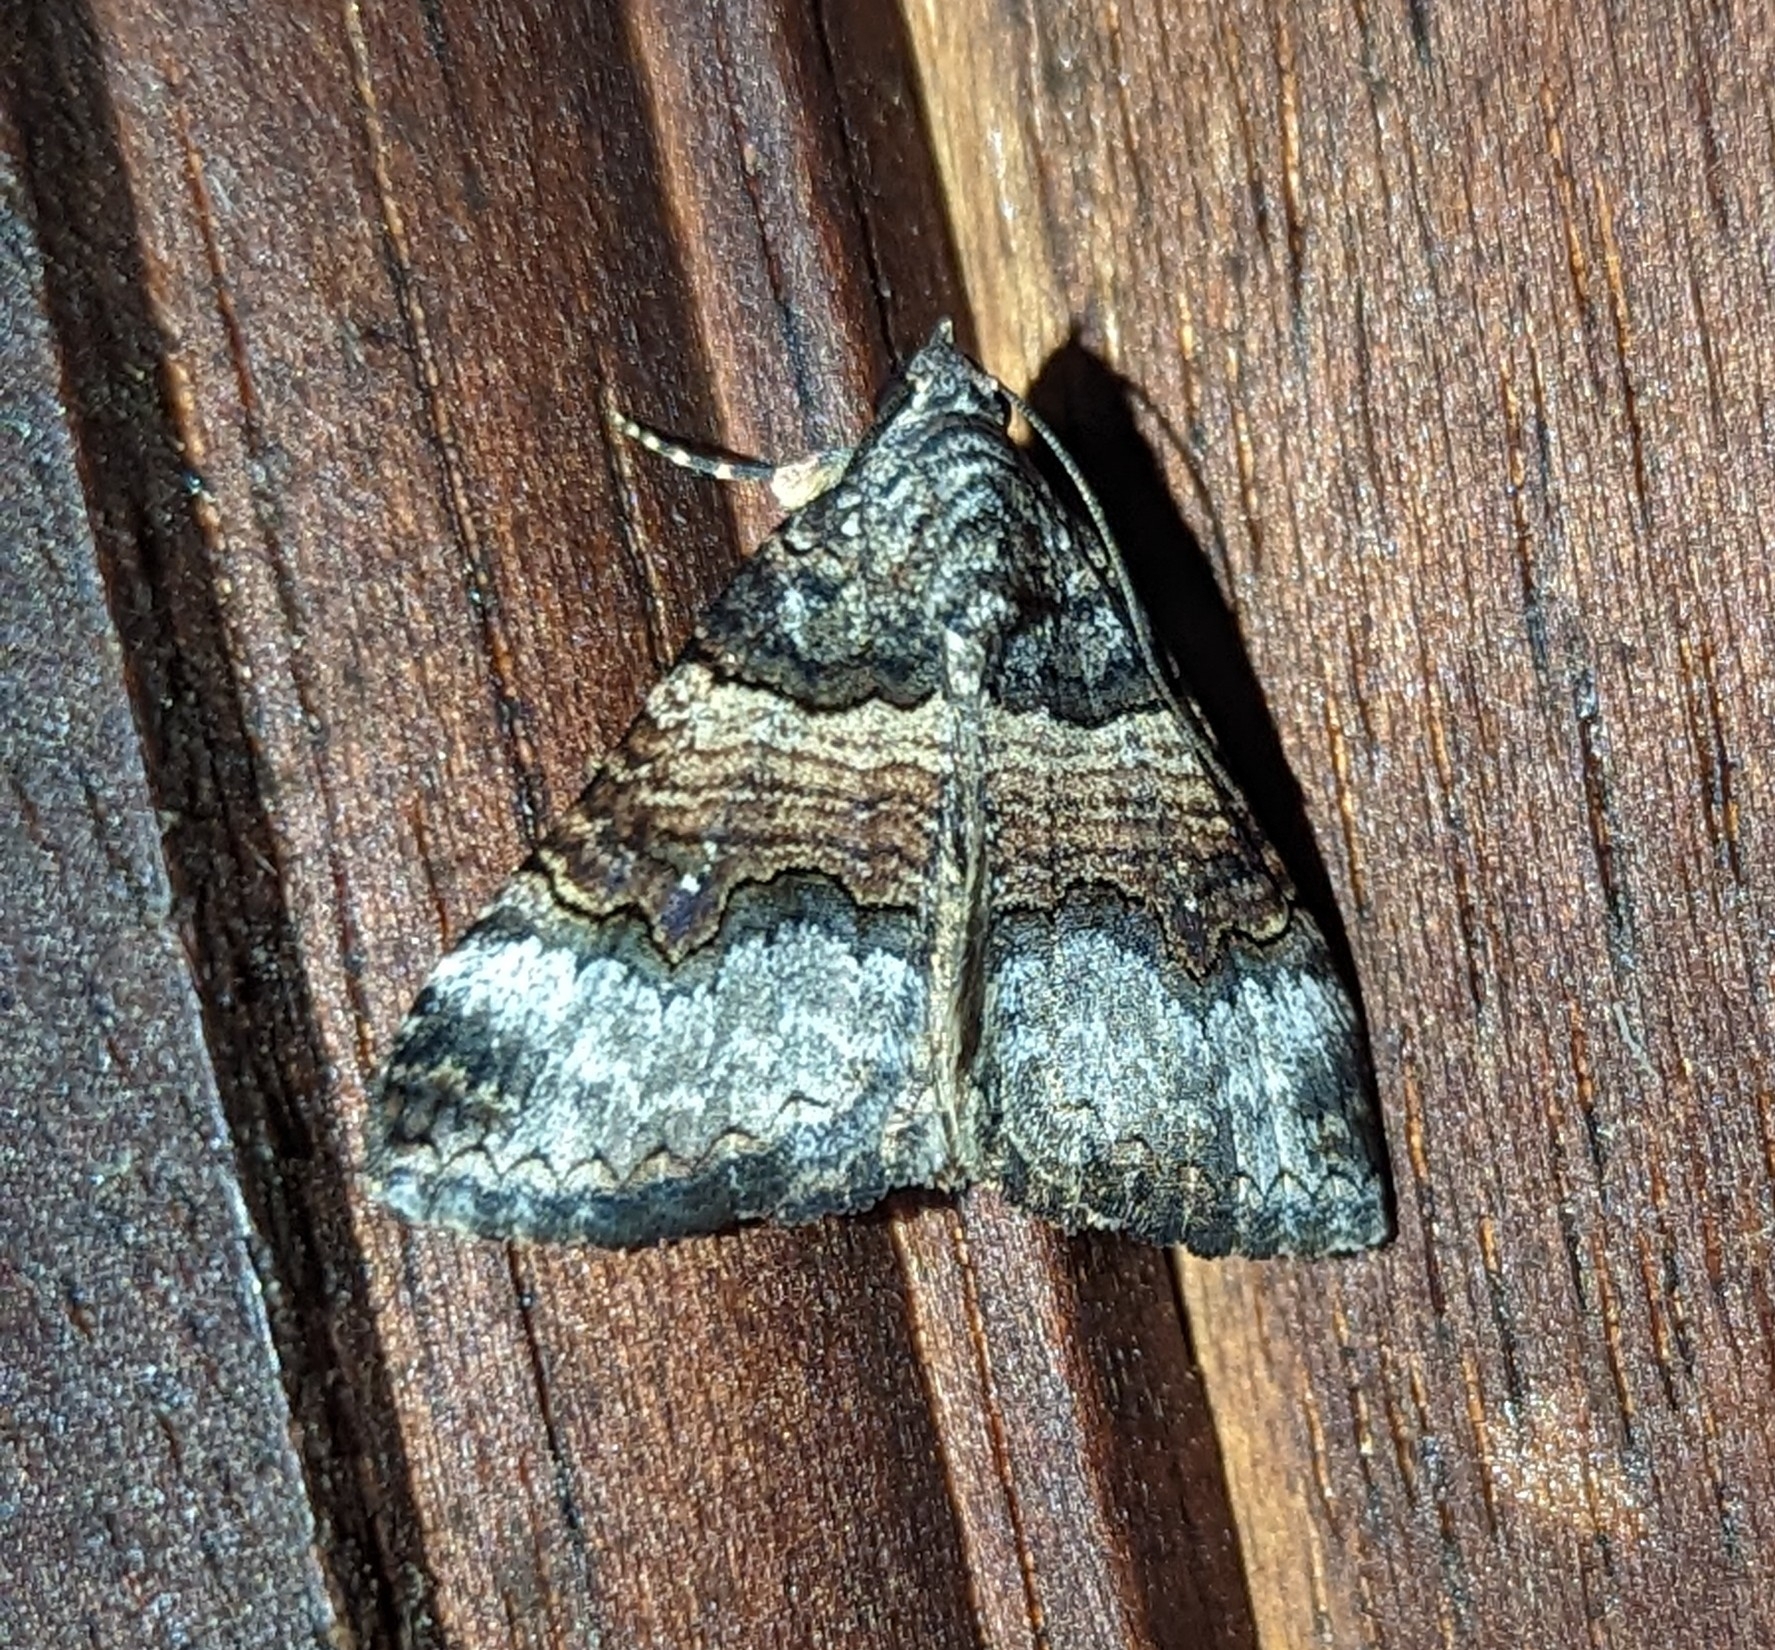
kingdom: Animalia
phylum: Arthropoda
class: Insecta
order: Lepidoptera
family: Erebidae
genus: Pericyma
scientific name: Pericyma atrifusa
